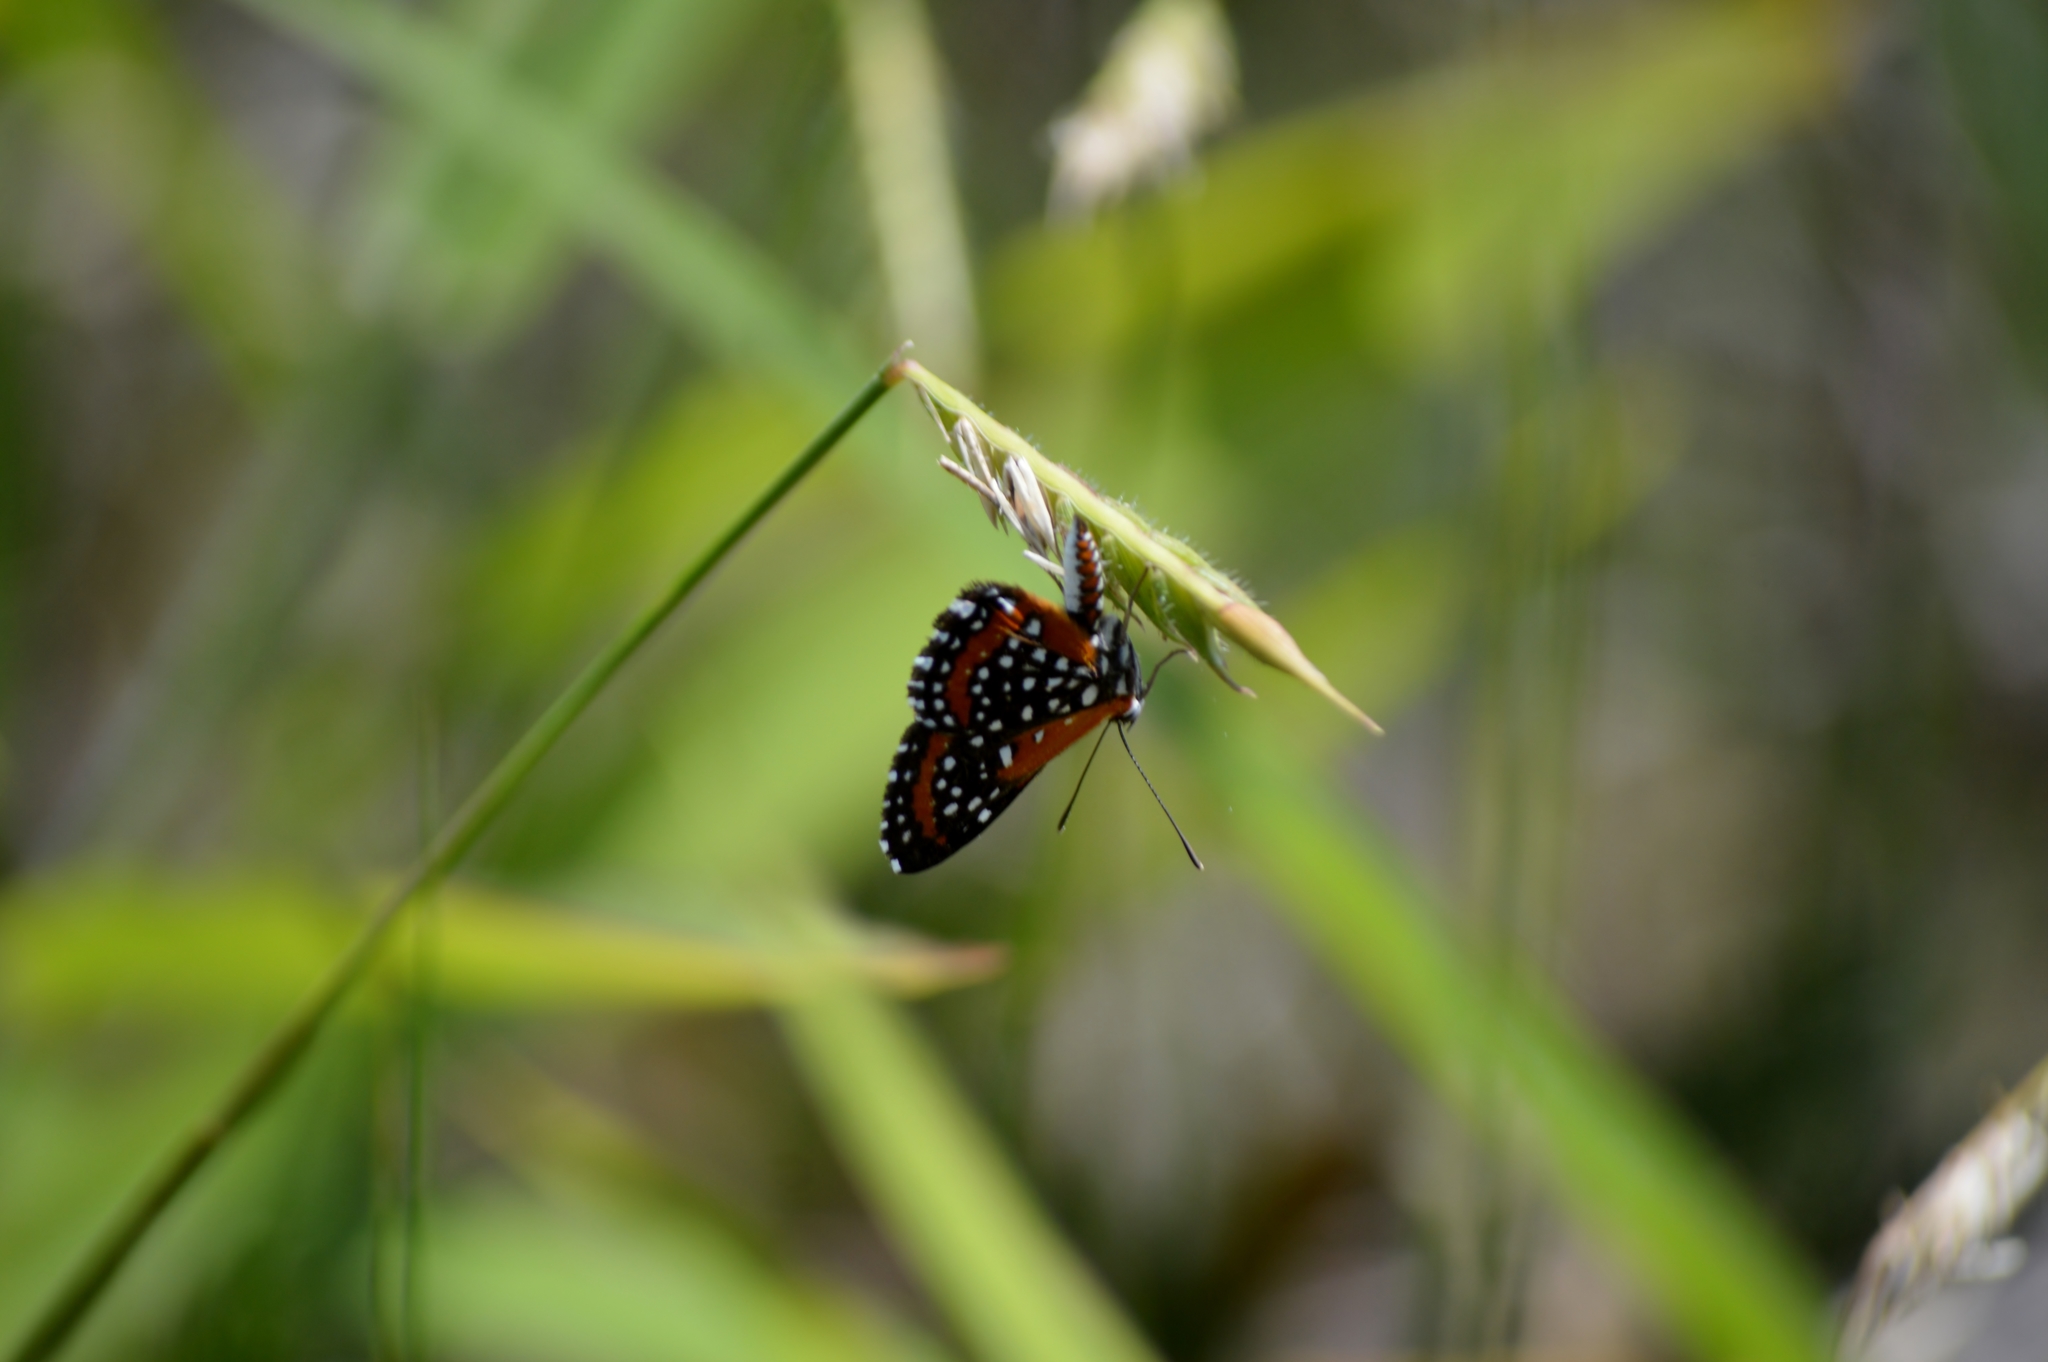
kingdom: Animalia
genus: Lemonias
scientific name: Lemonias
